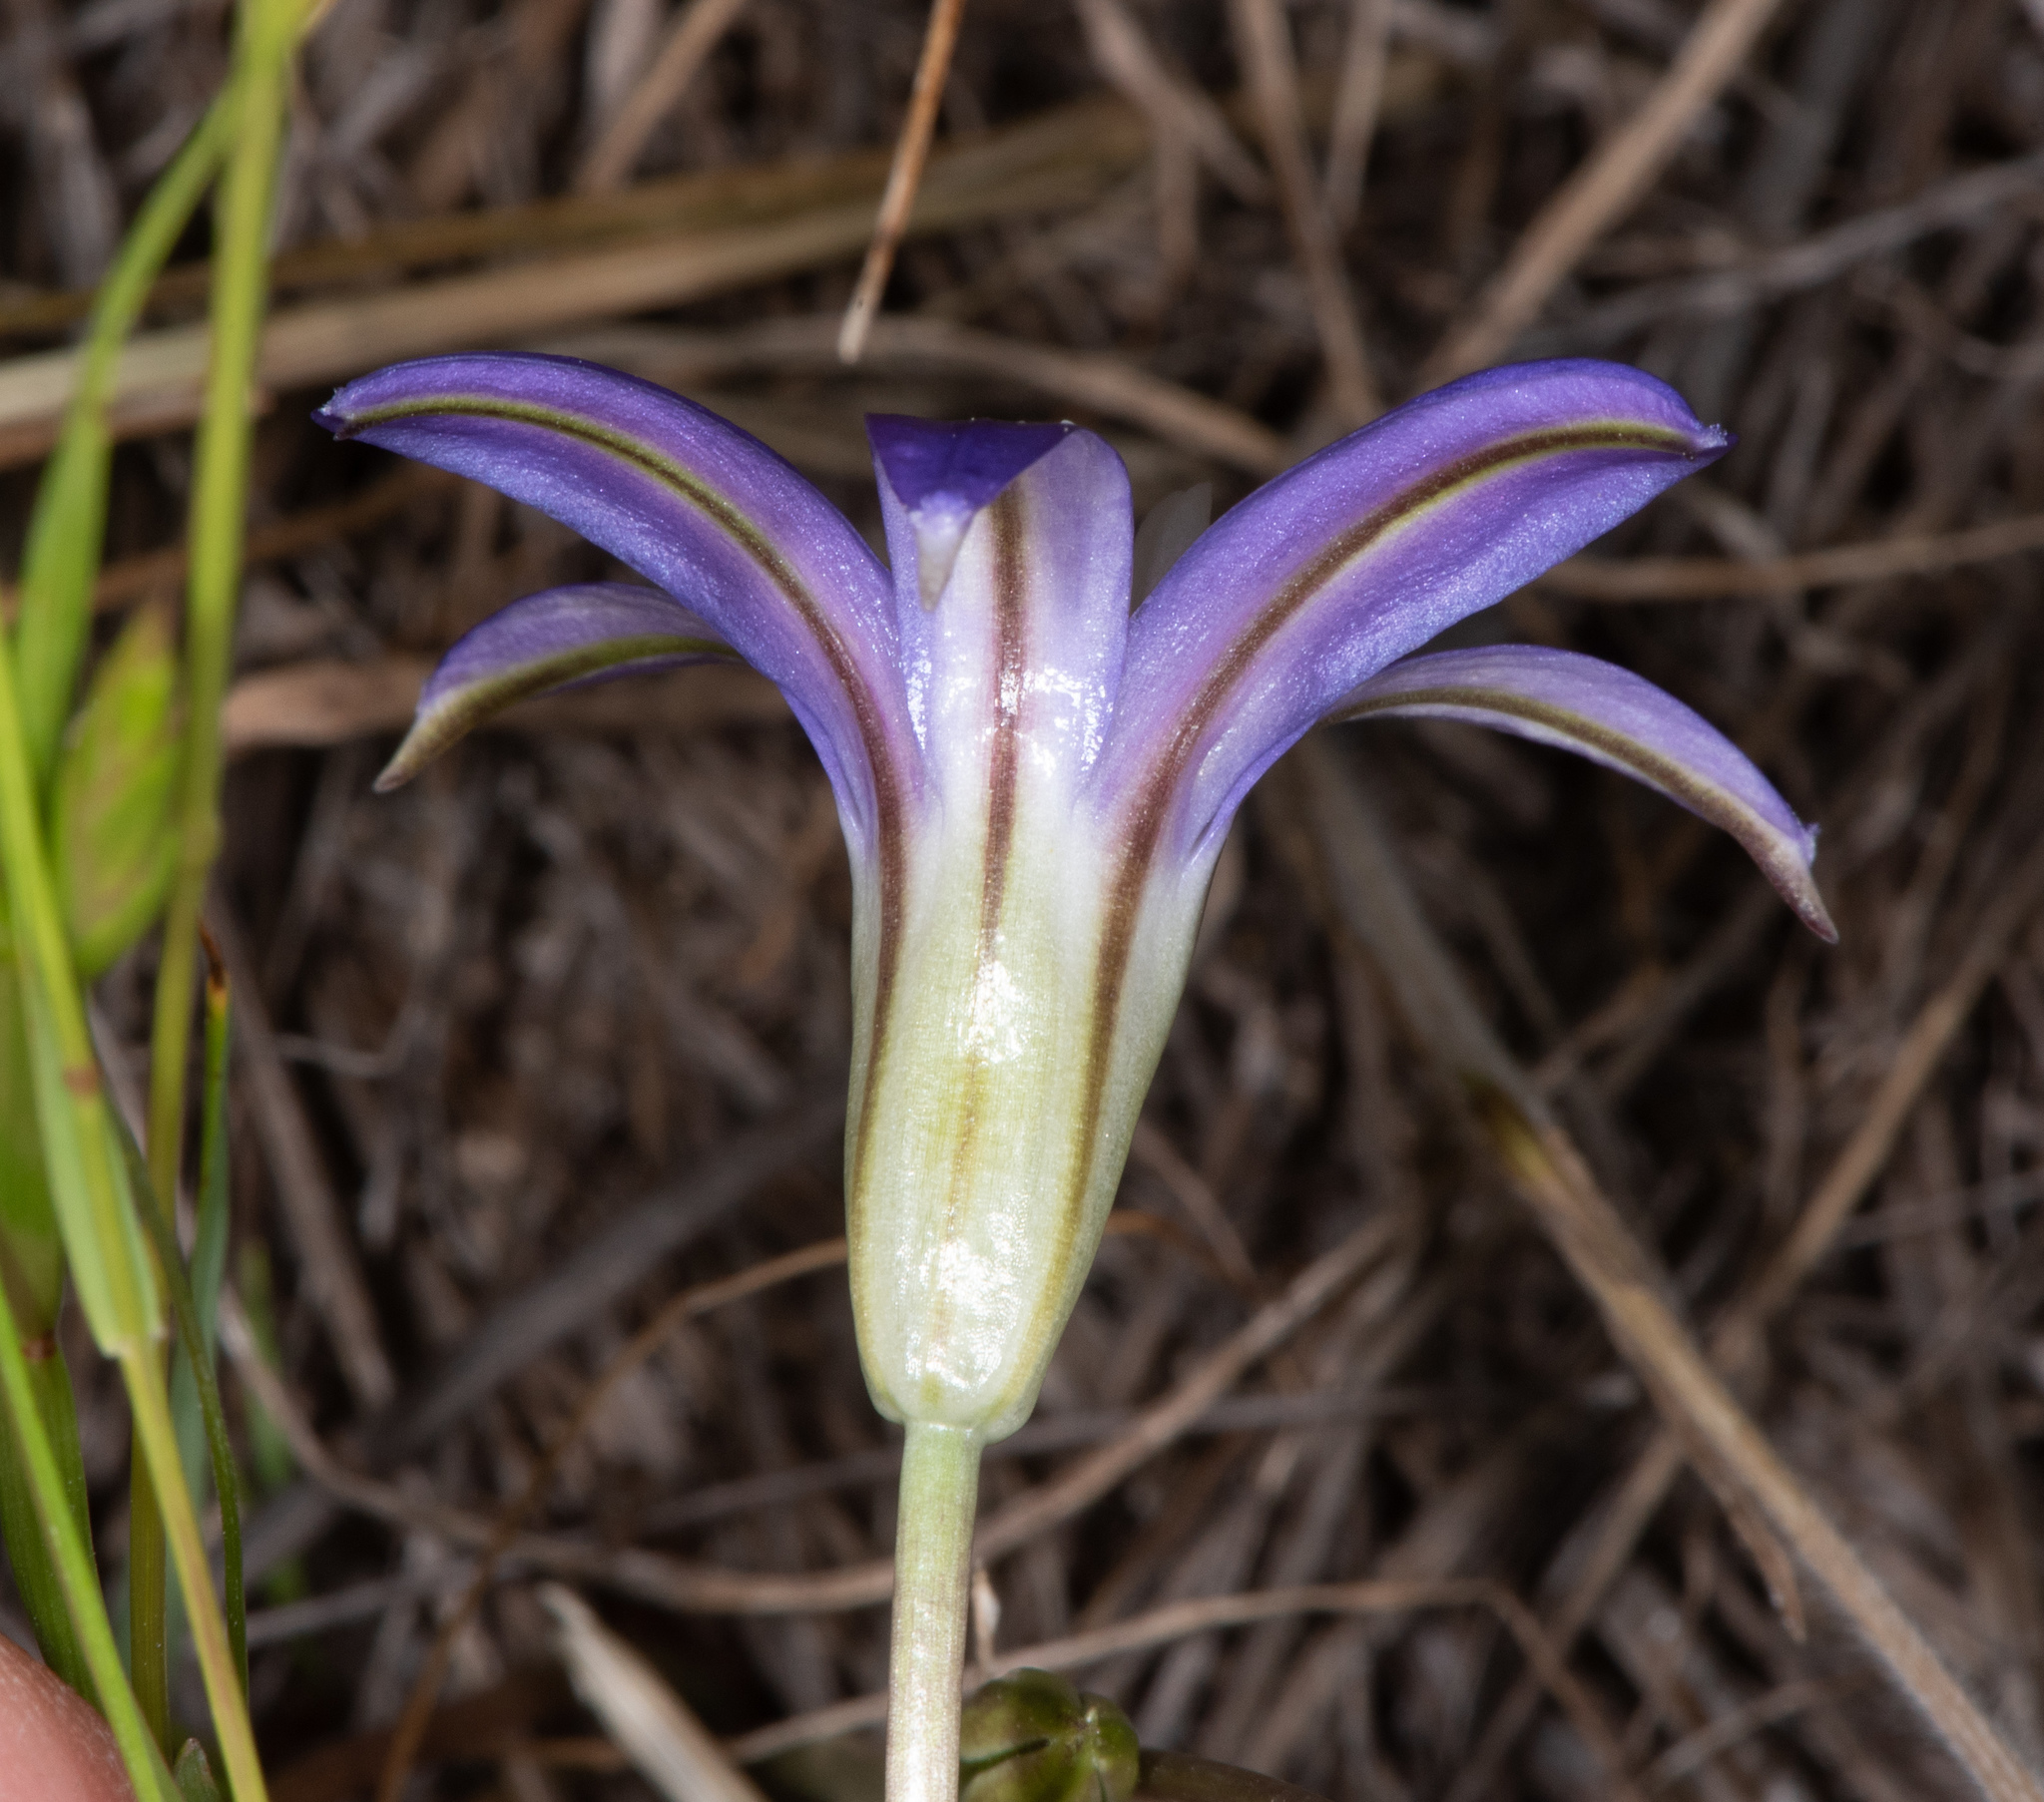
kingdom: Plantae
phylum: Tracheophyta
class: Liliopsida
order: Asparagales
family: Asparagaceae
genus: Brodiaea
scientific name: Brodiaea terrestris
